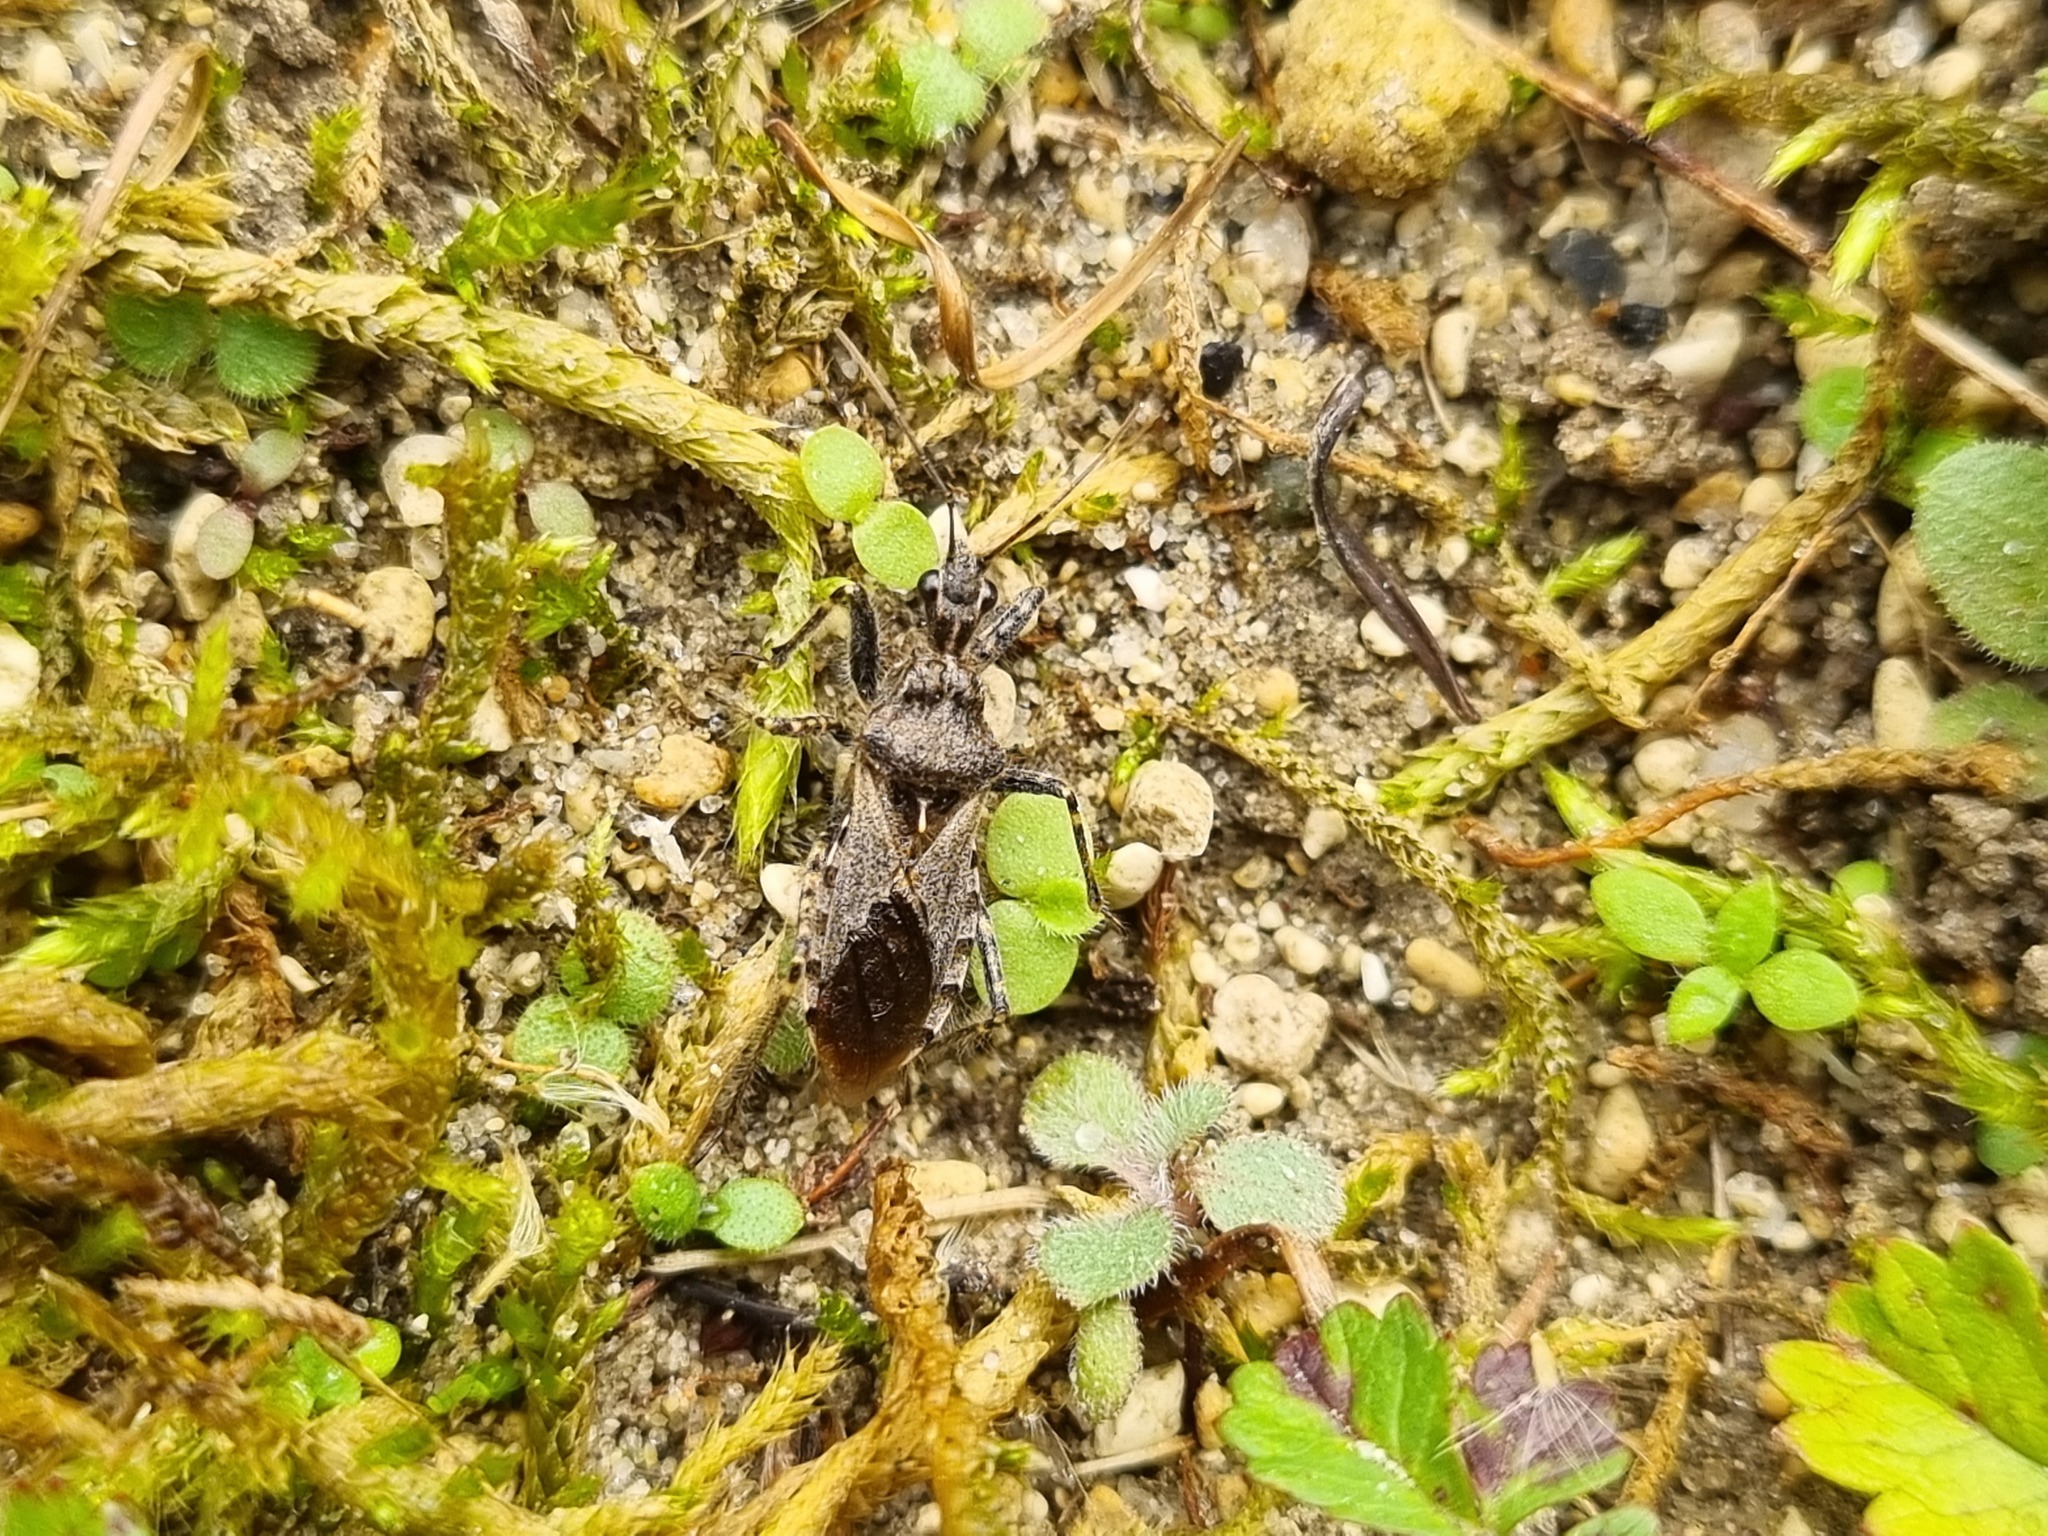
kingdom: Animalia
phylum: Arthropoda
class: Insecta
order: Hemiptera
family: Reduviidae
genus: Coranus
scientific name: Coranus griseus
